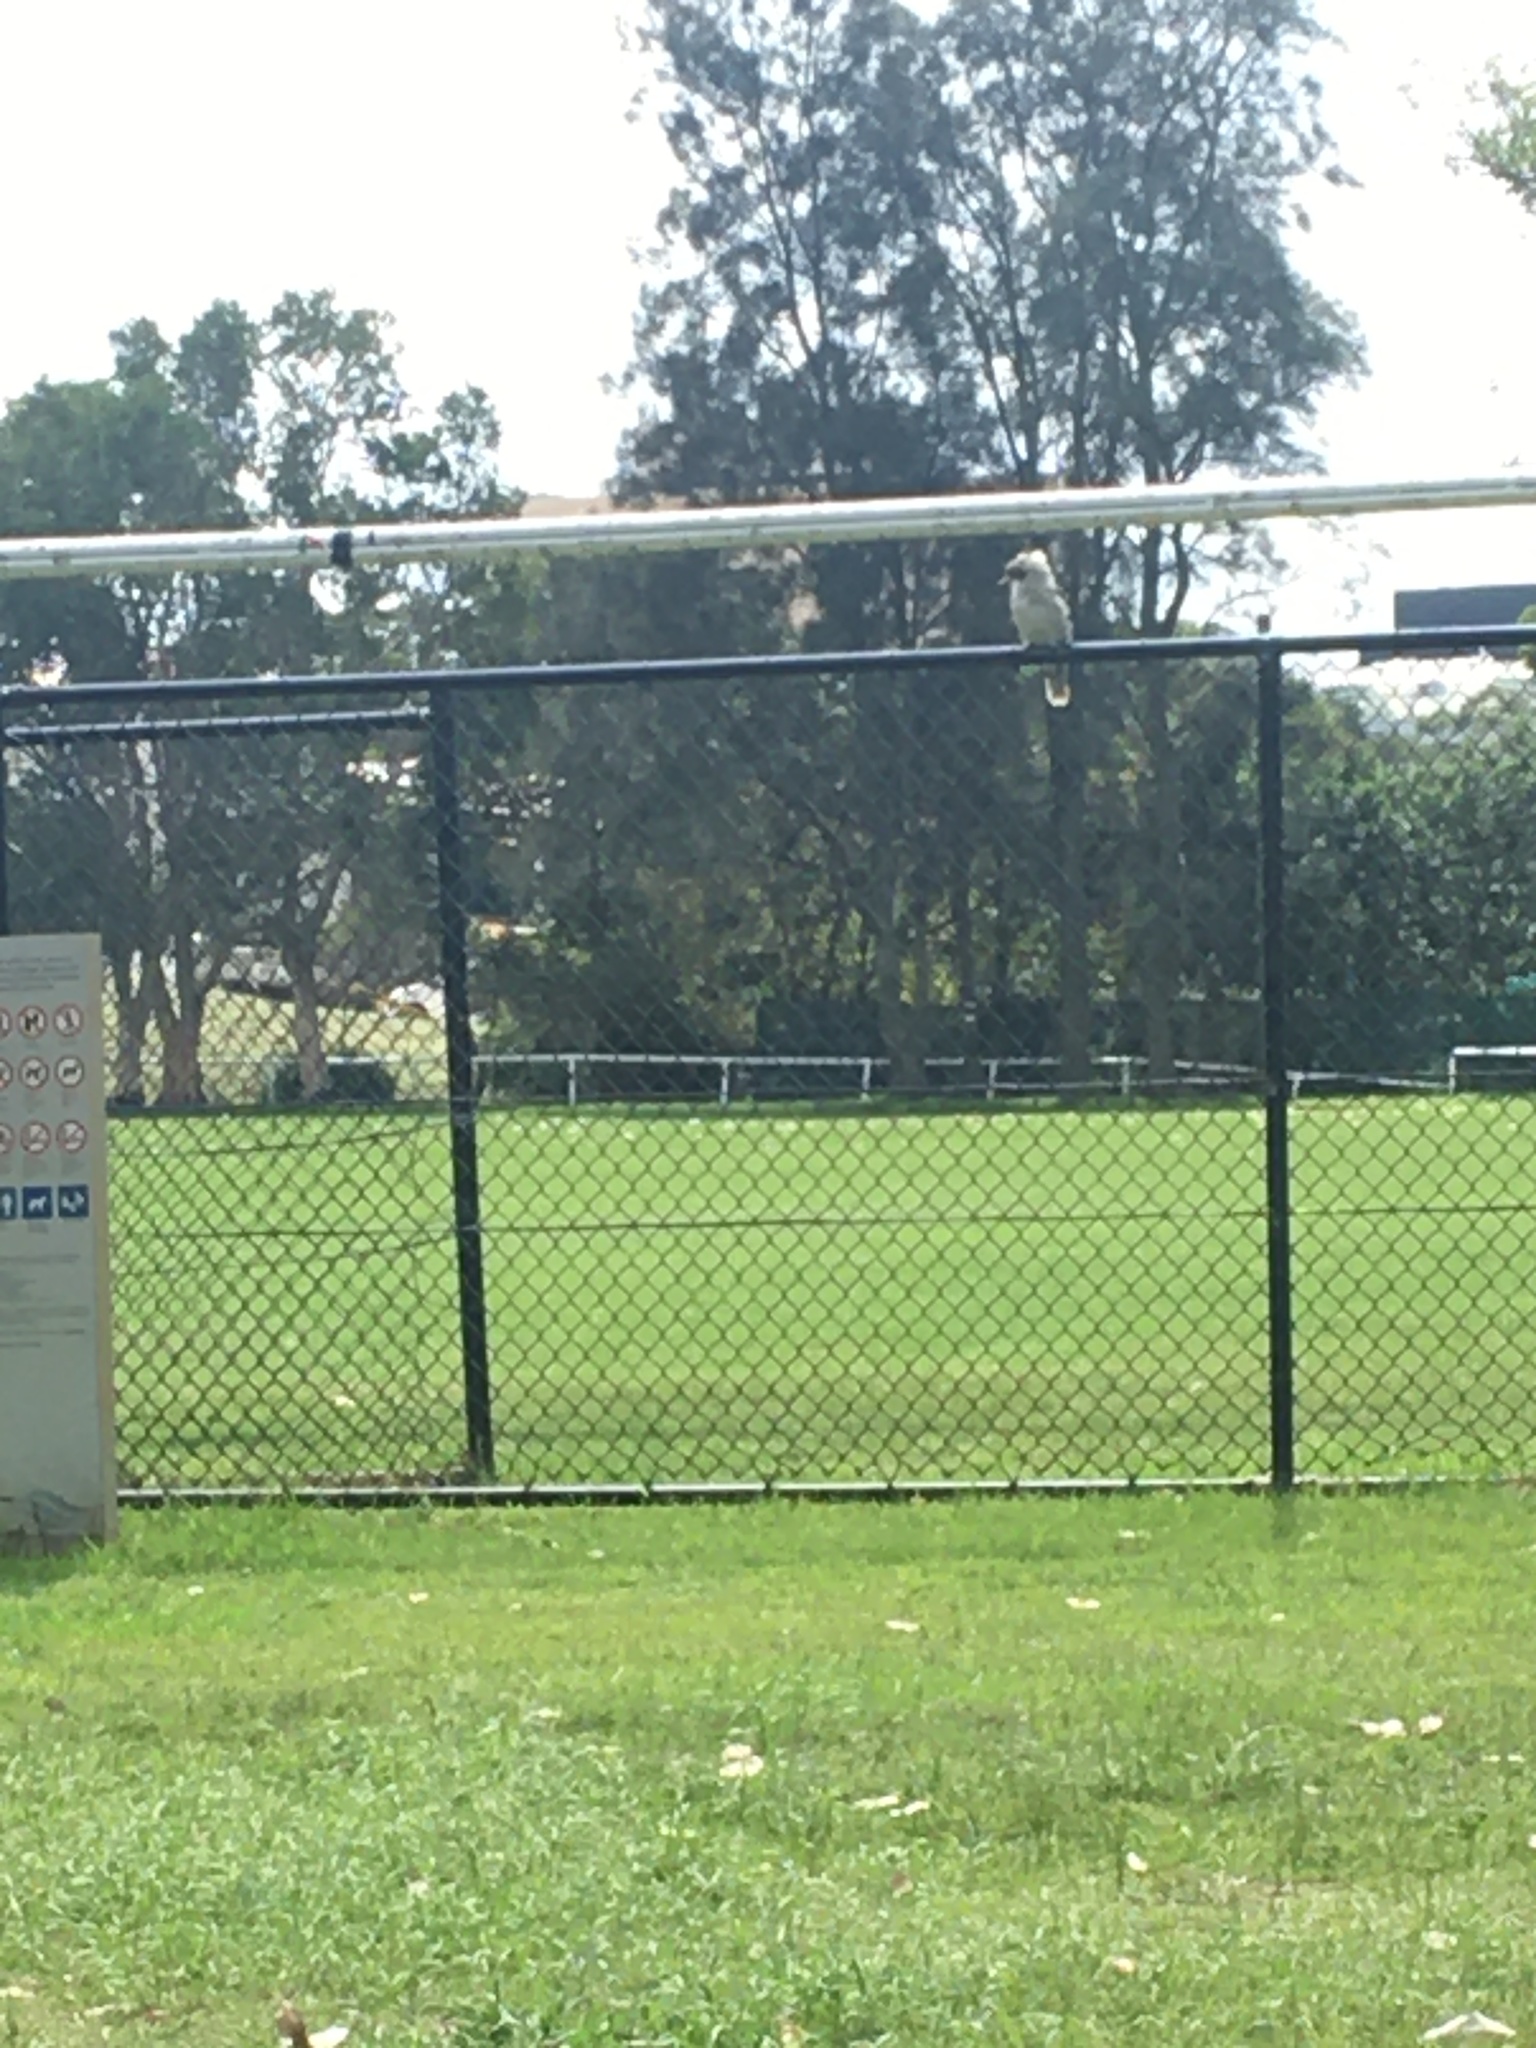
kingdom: Animalia
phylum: Chordata
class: Aves
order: Coraciiformes
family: Alcedinidae
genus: Dacelo
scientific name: Dacelo novaeguineae
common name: Laughing kookaburra
